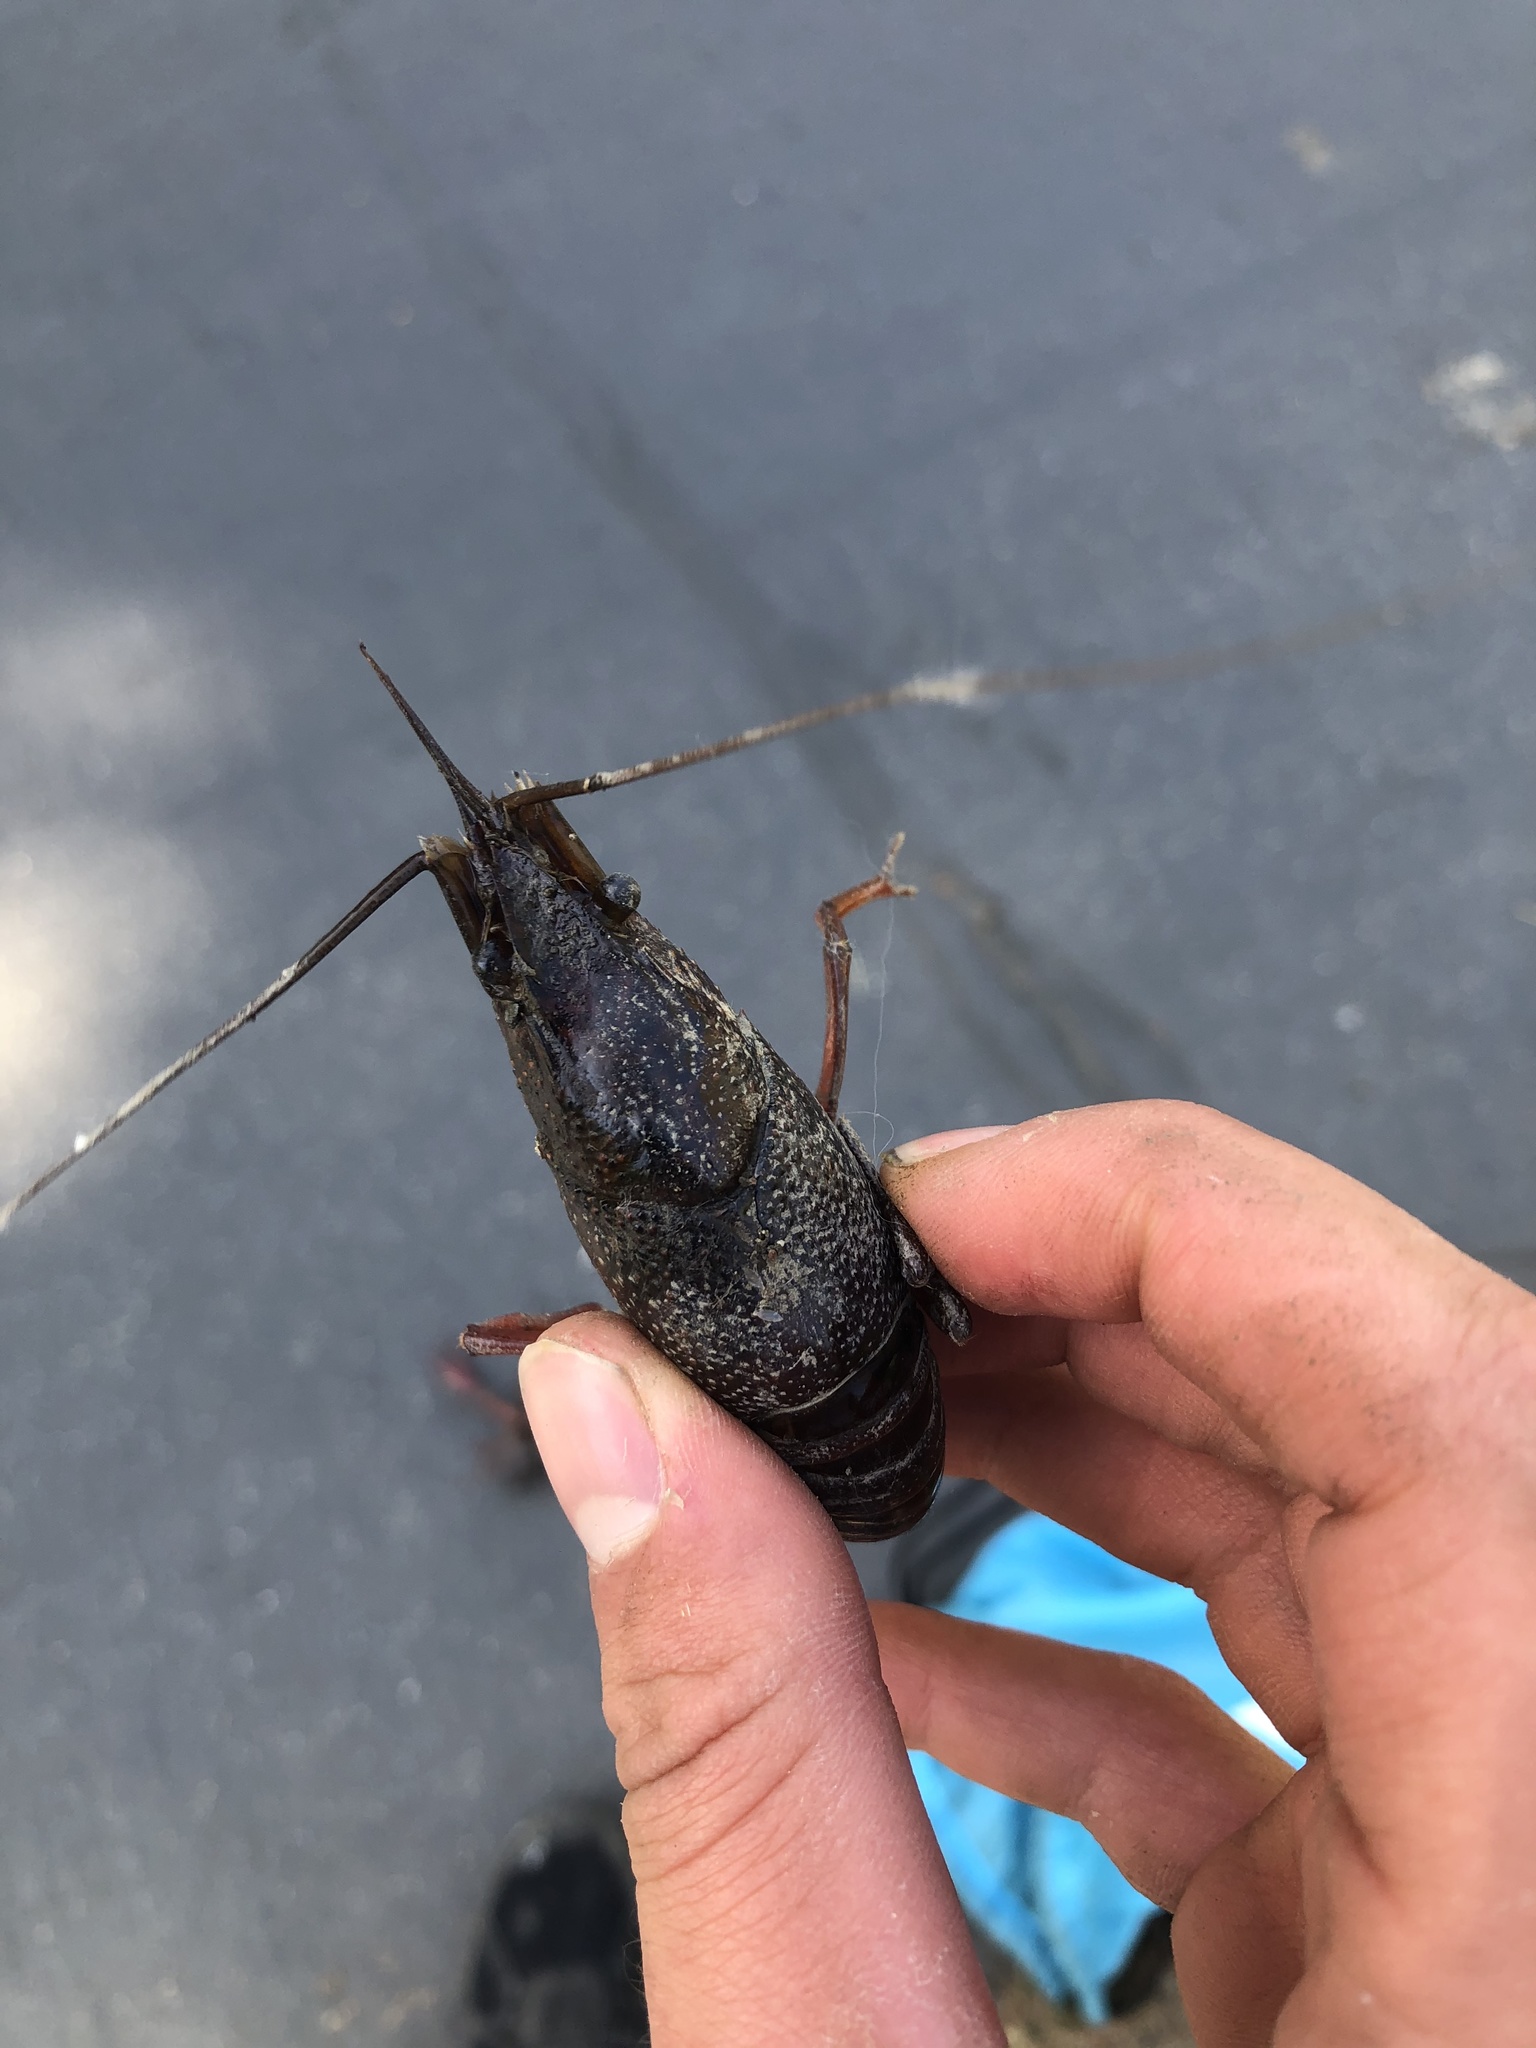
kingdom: Animalia
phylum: Arthropoda
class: Malacostraca
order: Decapoda
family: Cambaridae
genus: Procambarus
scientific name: Procambarus clarkii
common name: Red swamp crayfish
